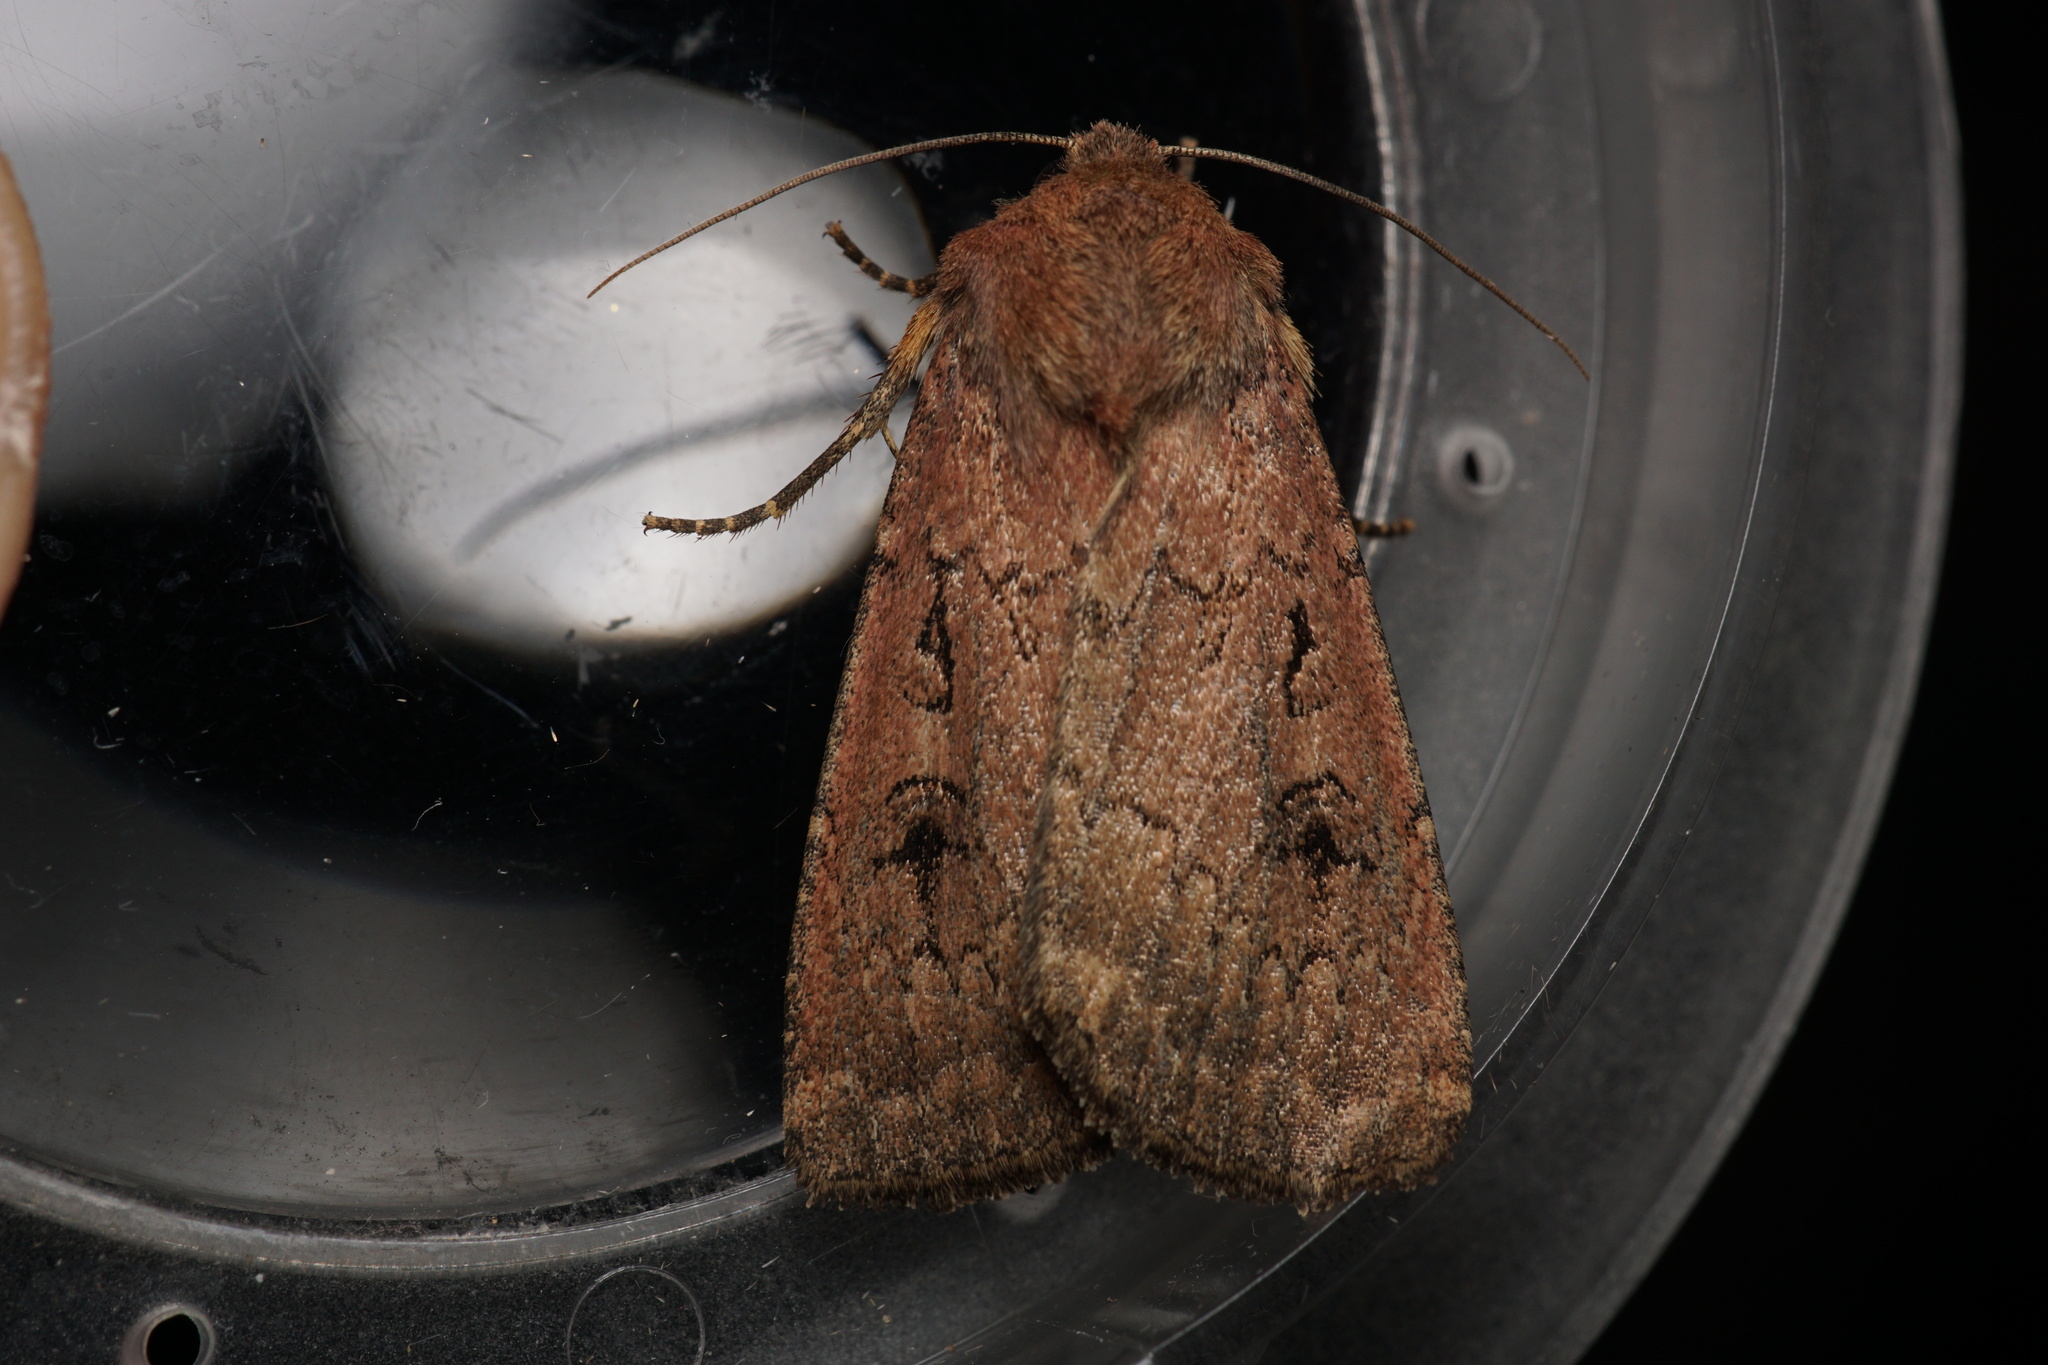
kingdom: Animalia
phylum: Arthropoda
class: Insecta
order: Lepidoptera
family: Noctuidae
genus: Graphiphora
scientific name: Graphiphora augur
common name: Double dart
